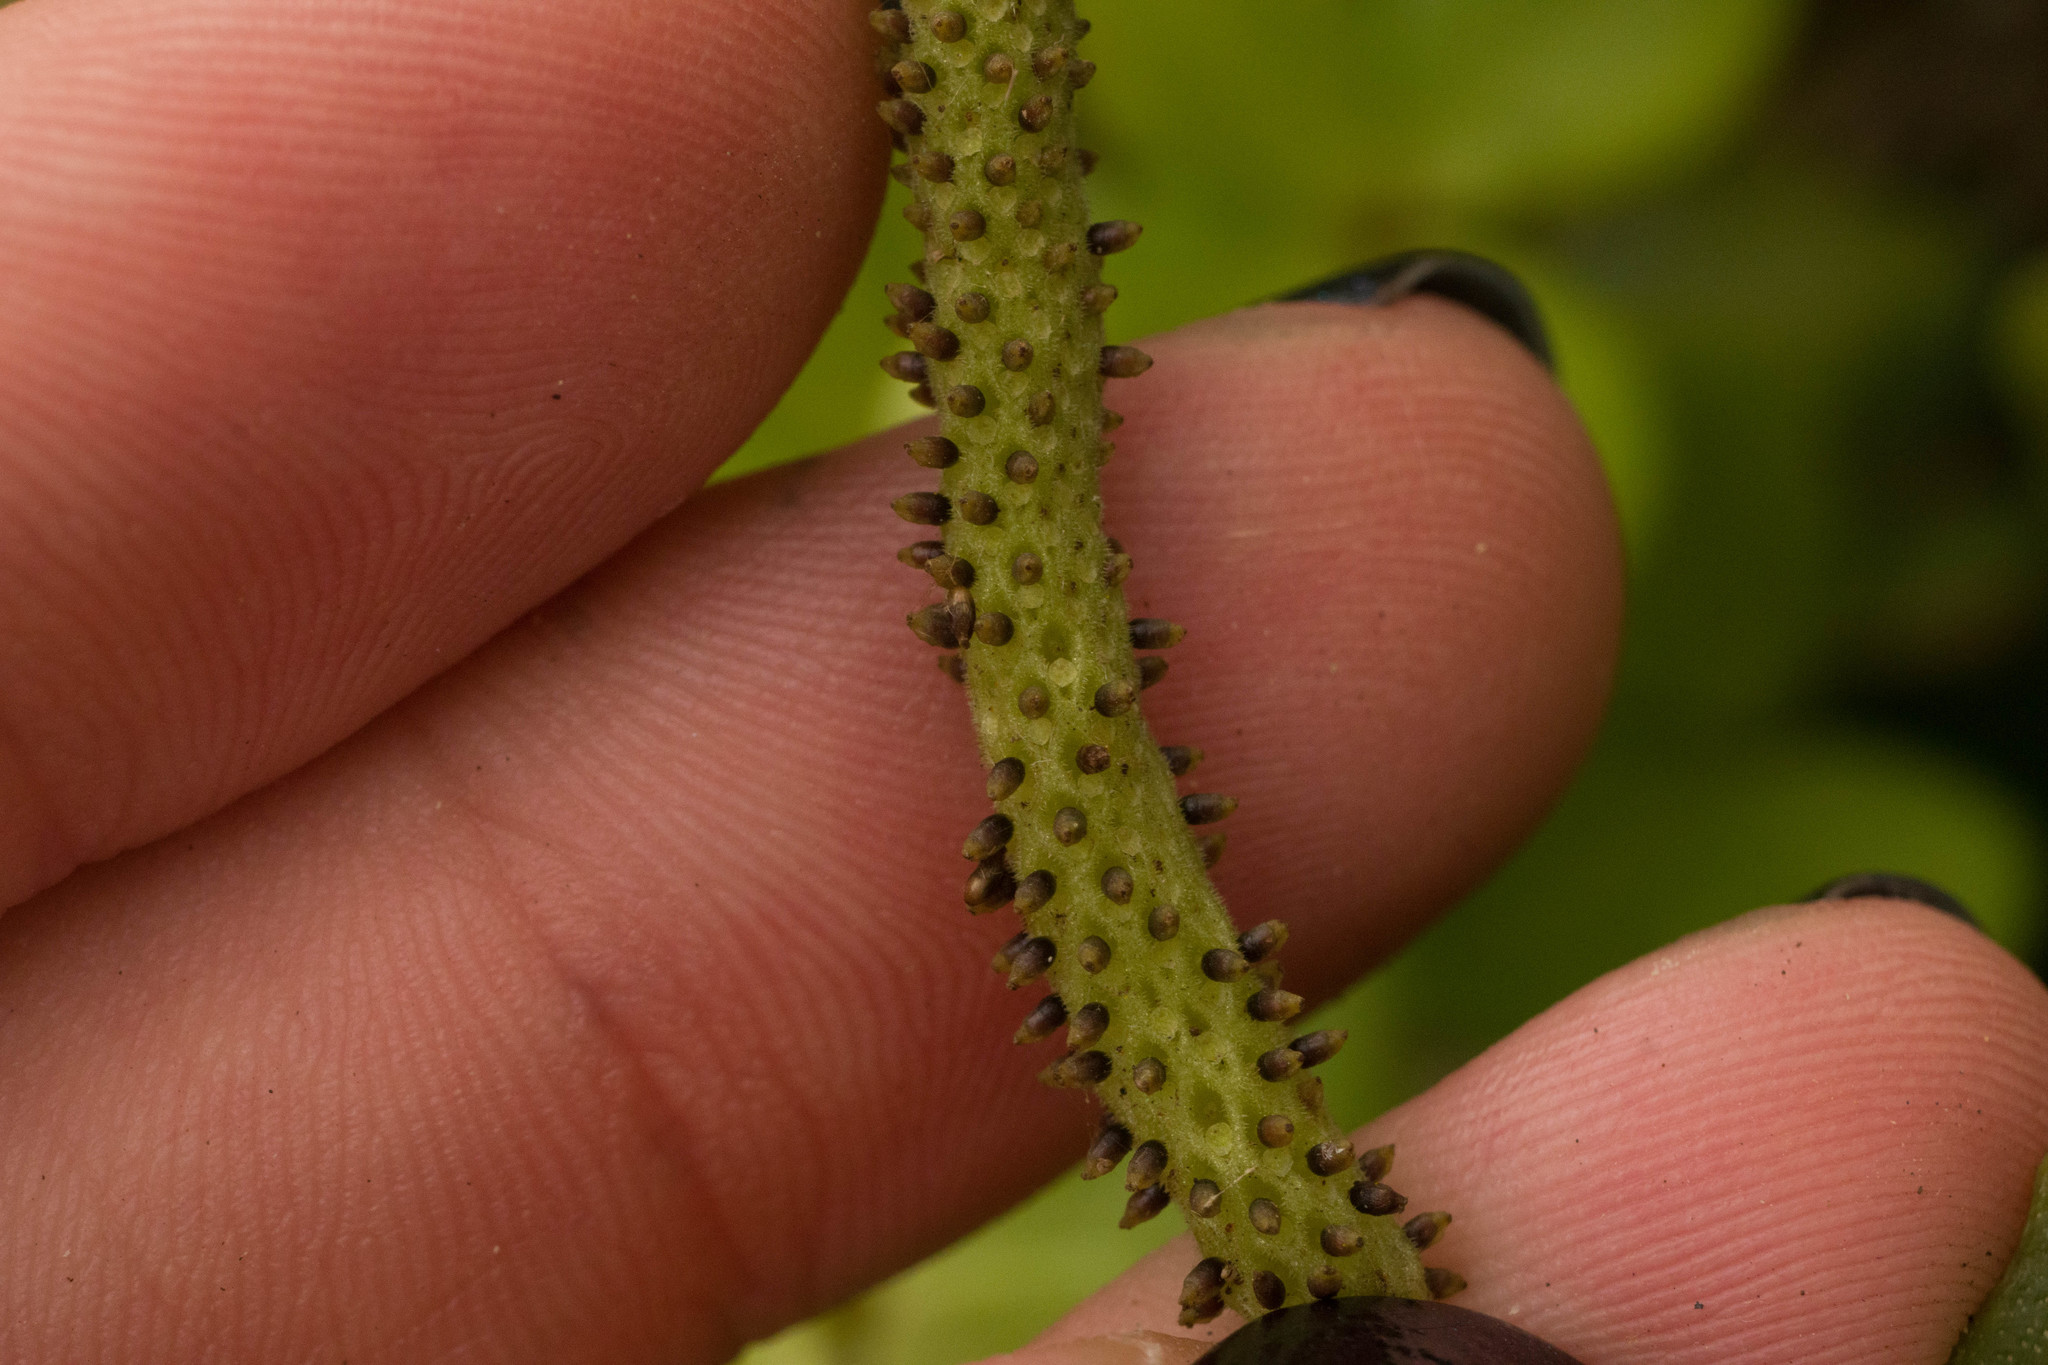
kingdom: Plantae
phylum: Tracheophyta
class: Magnoliopsida
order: Piperales
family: Piperaceae
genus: Peperomia
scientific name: Peperomia tetraphylla
